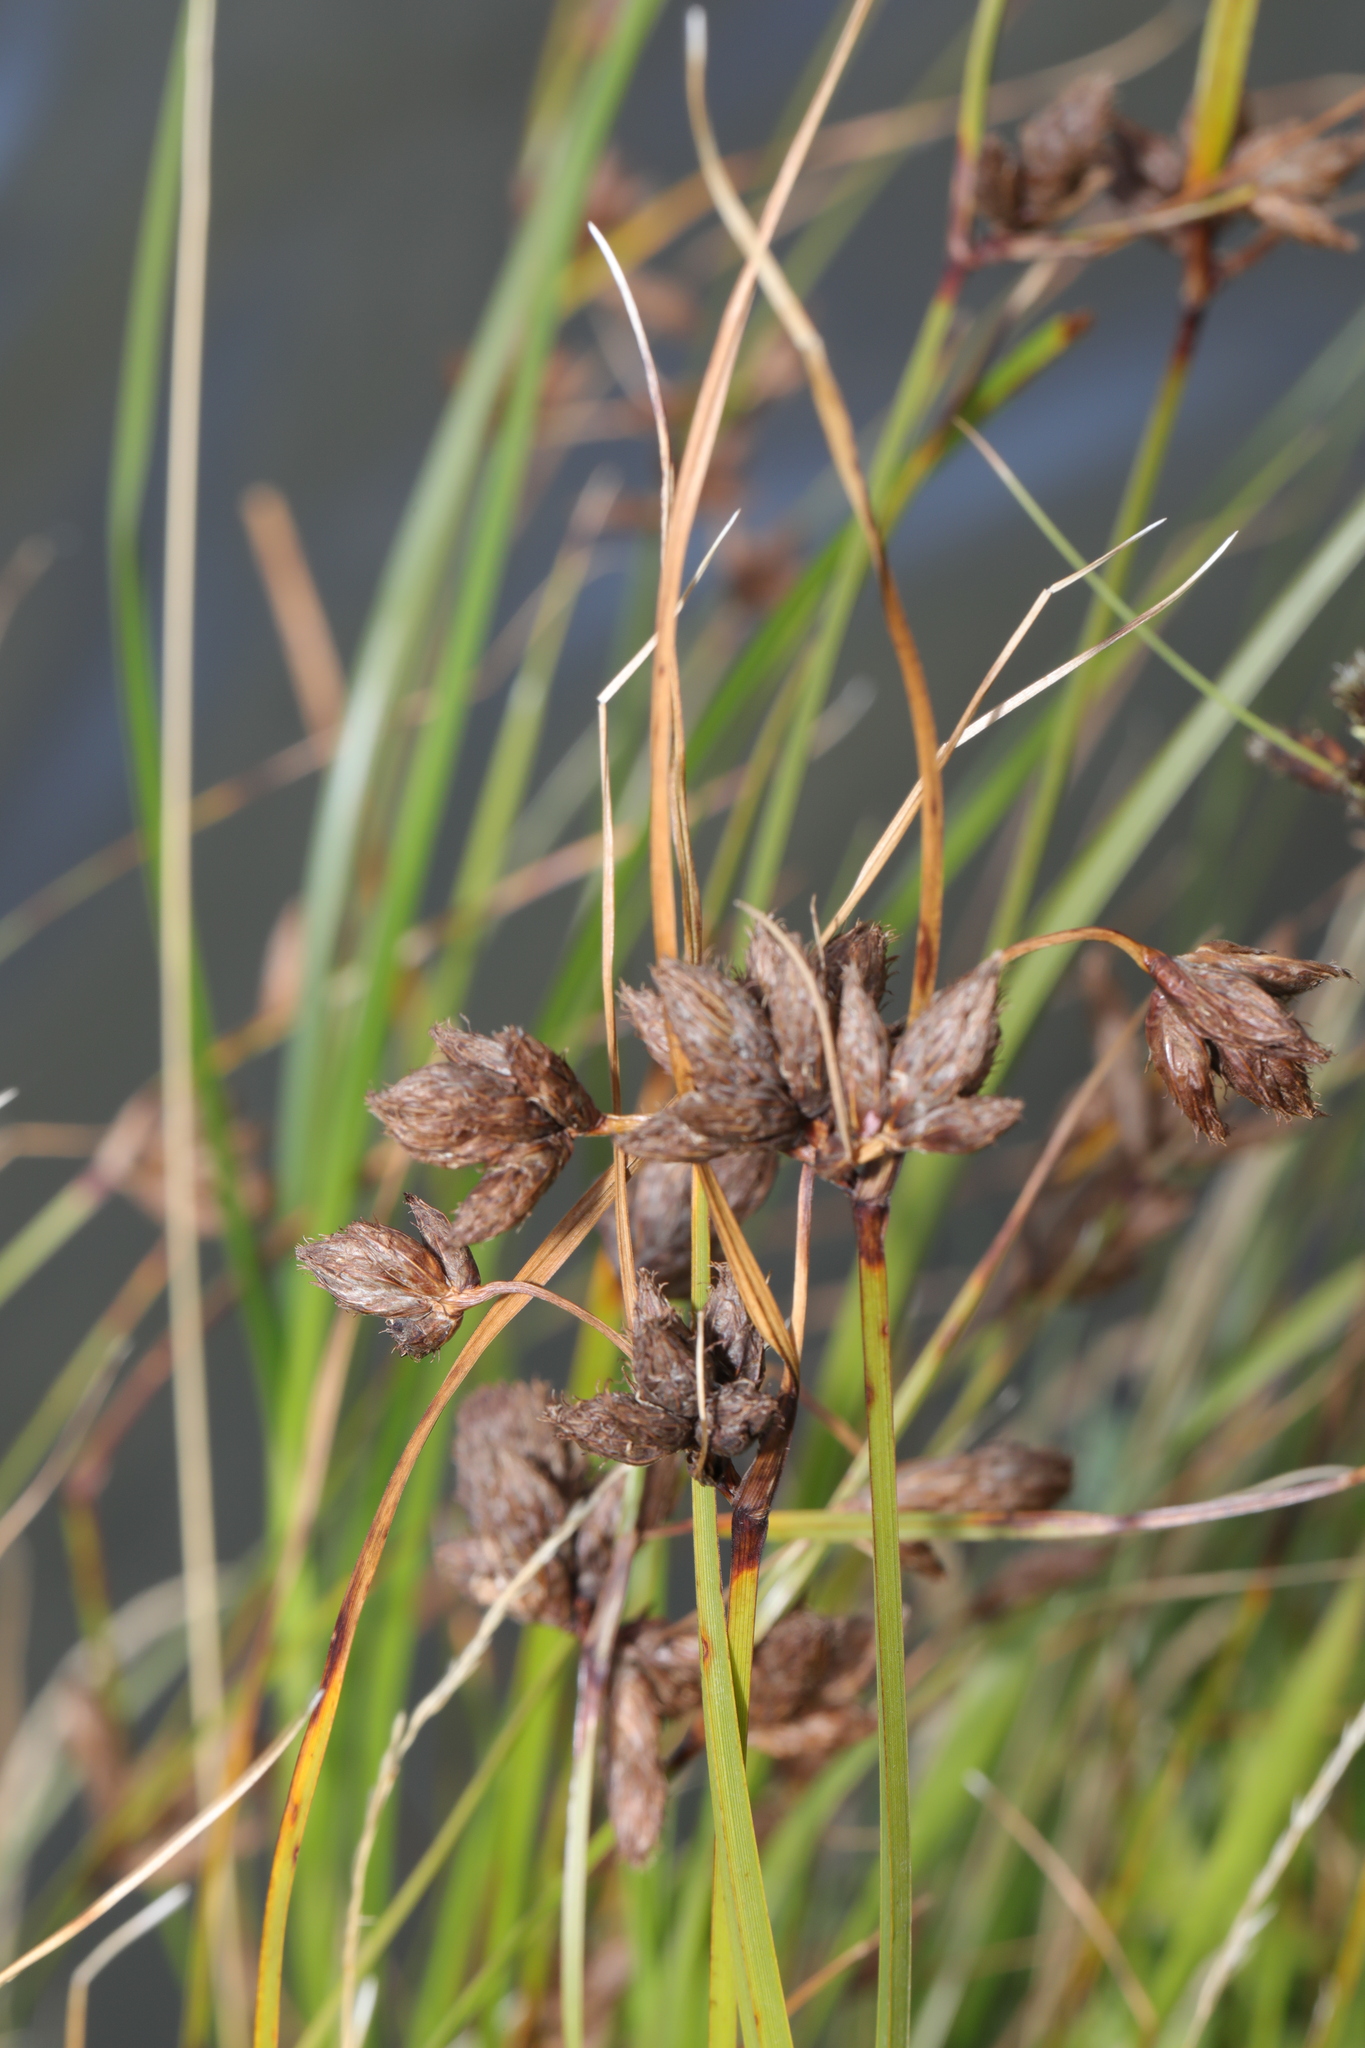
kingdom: Plantae
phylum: Tracheophyta
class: Liliopsida
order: Poales
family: Cyperaceae
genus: Bolboschoenus
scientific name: Bolboschoenus maritimus
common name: Sea club-rush
